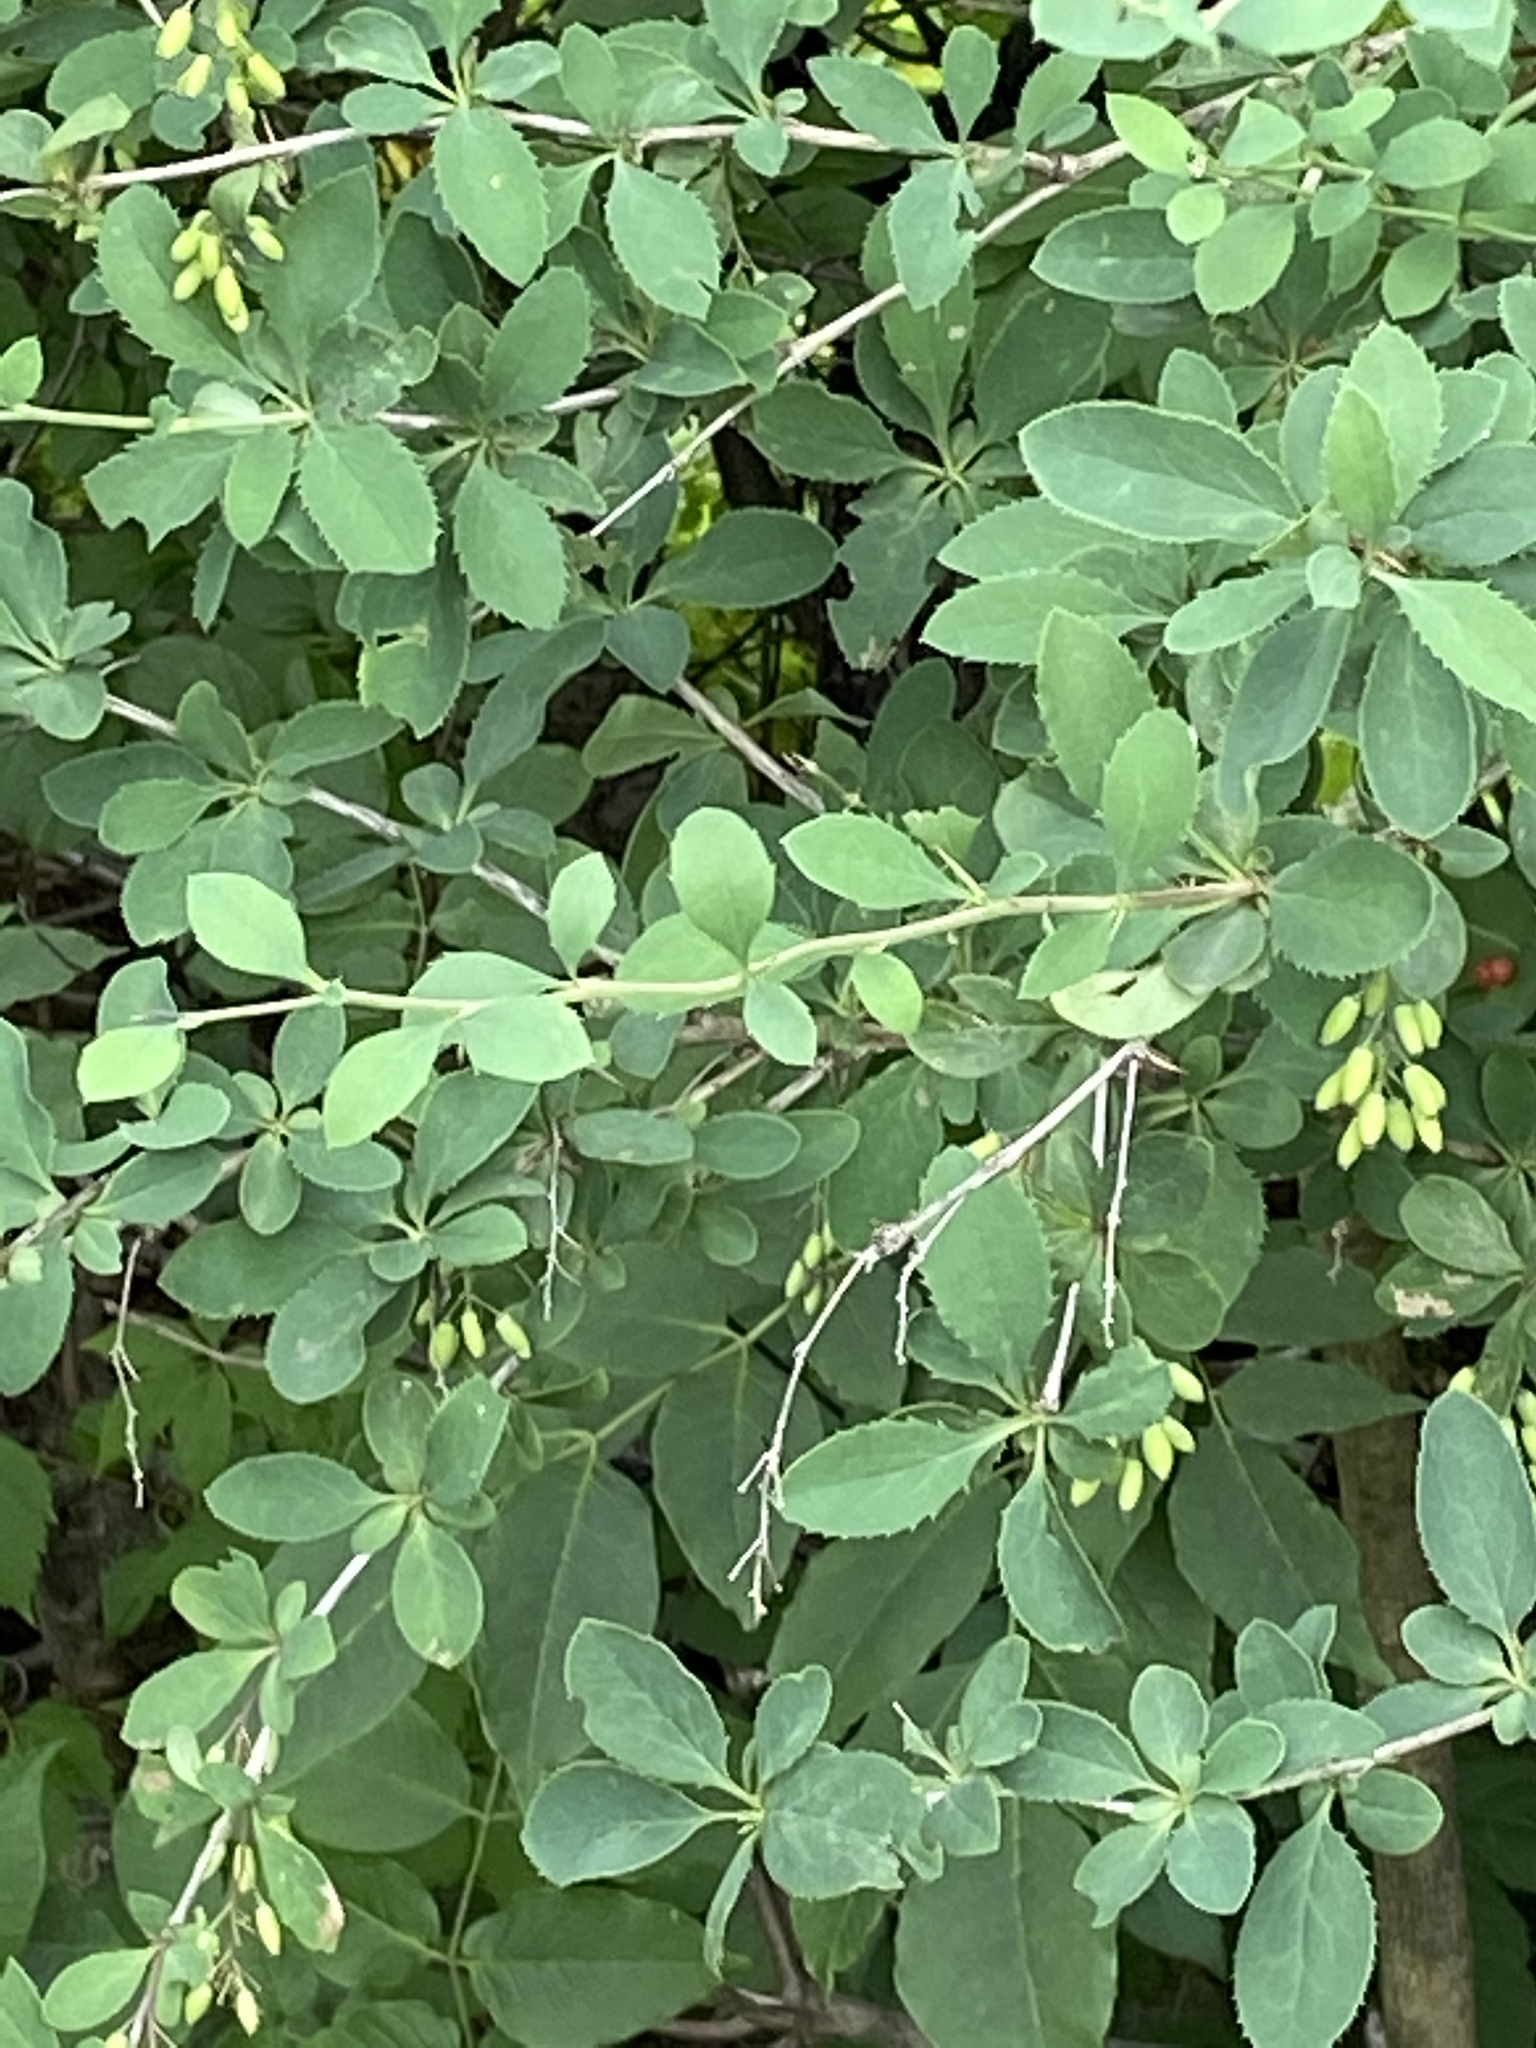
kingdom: Plantae
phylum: Tracheophyta
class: Magnoliopsida
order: Ranunculales
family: Berberidaceae
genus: Berberis
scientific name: Berberis vulgaris
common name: Barberry
